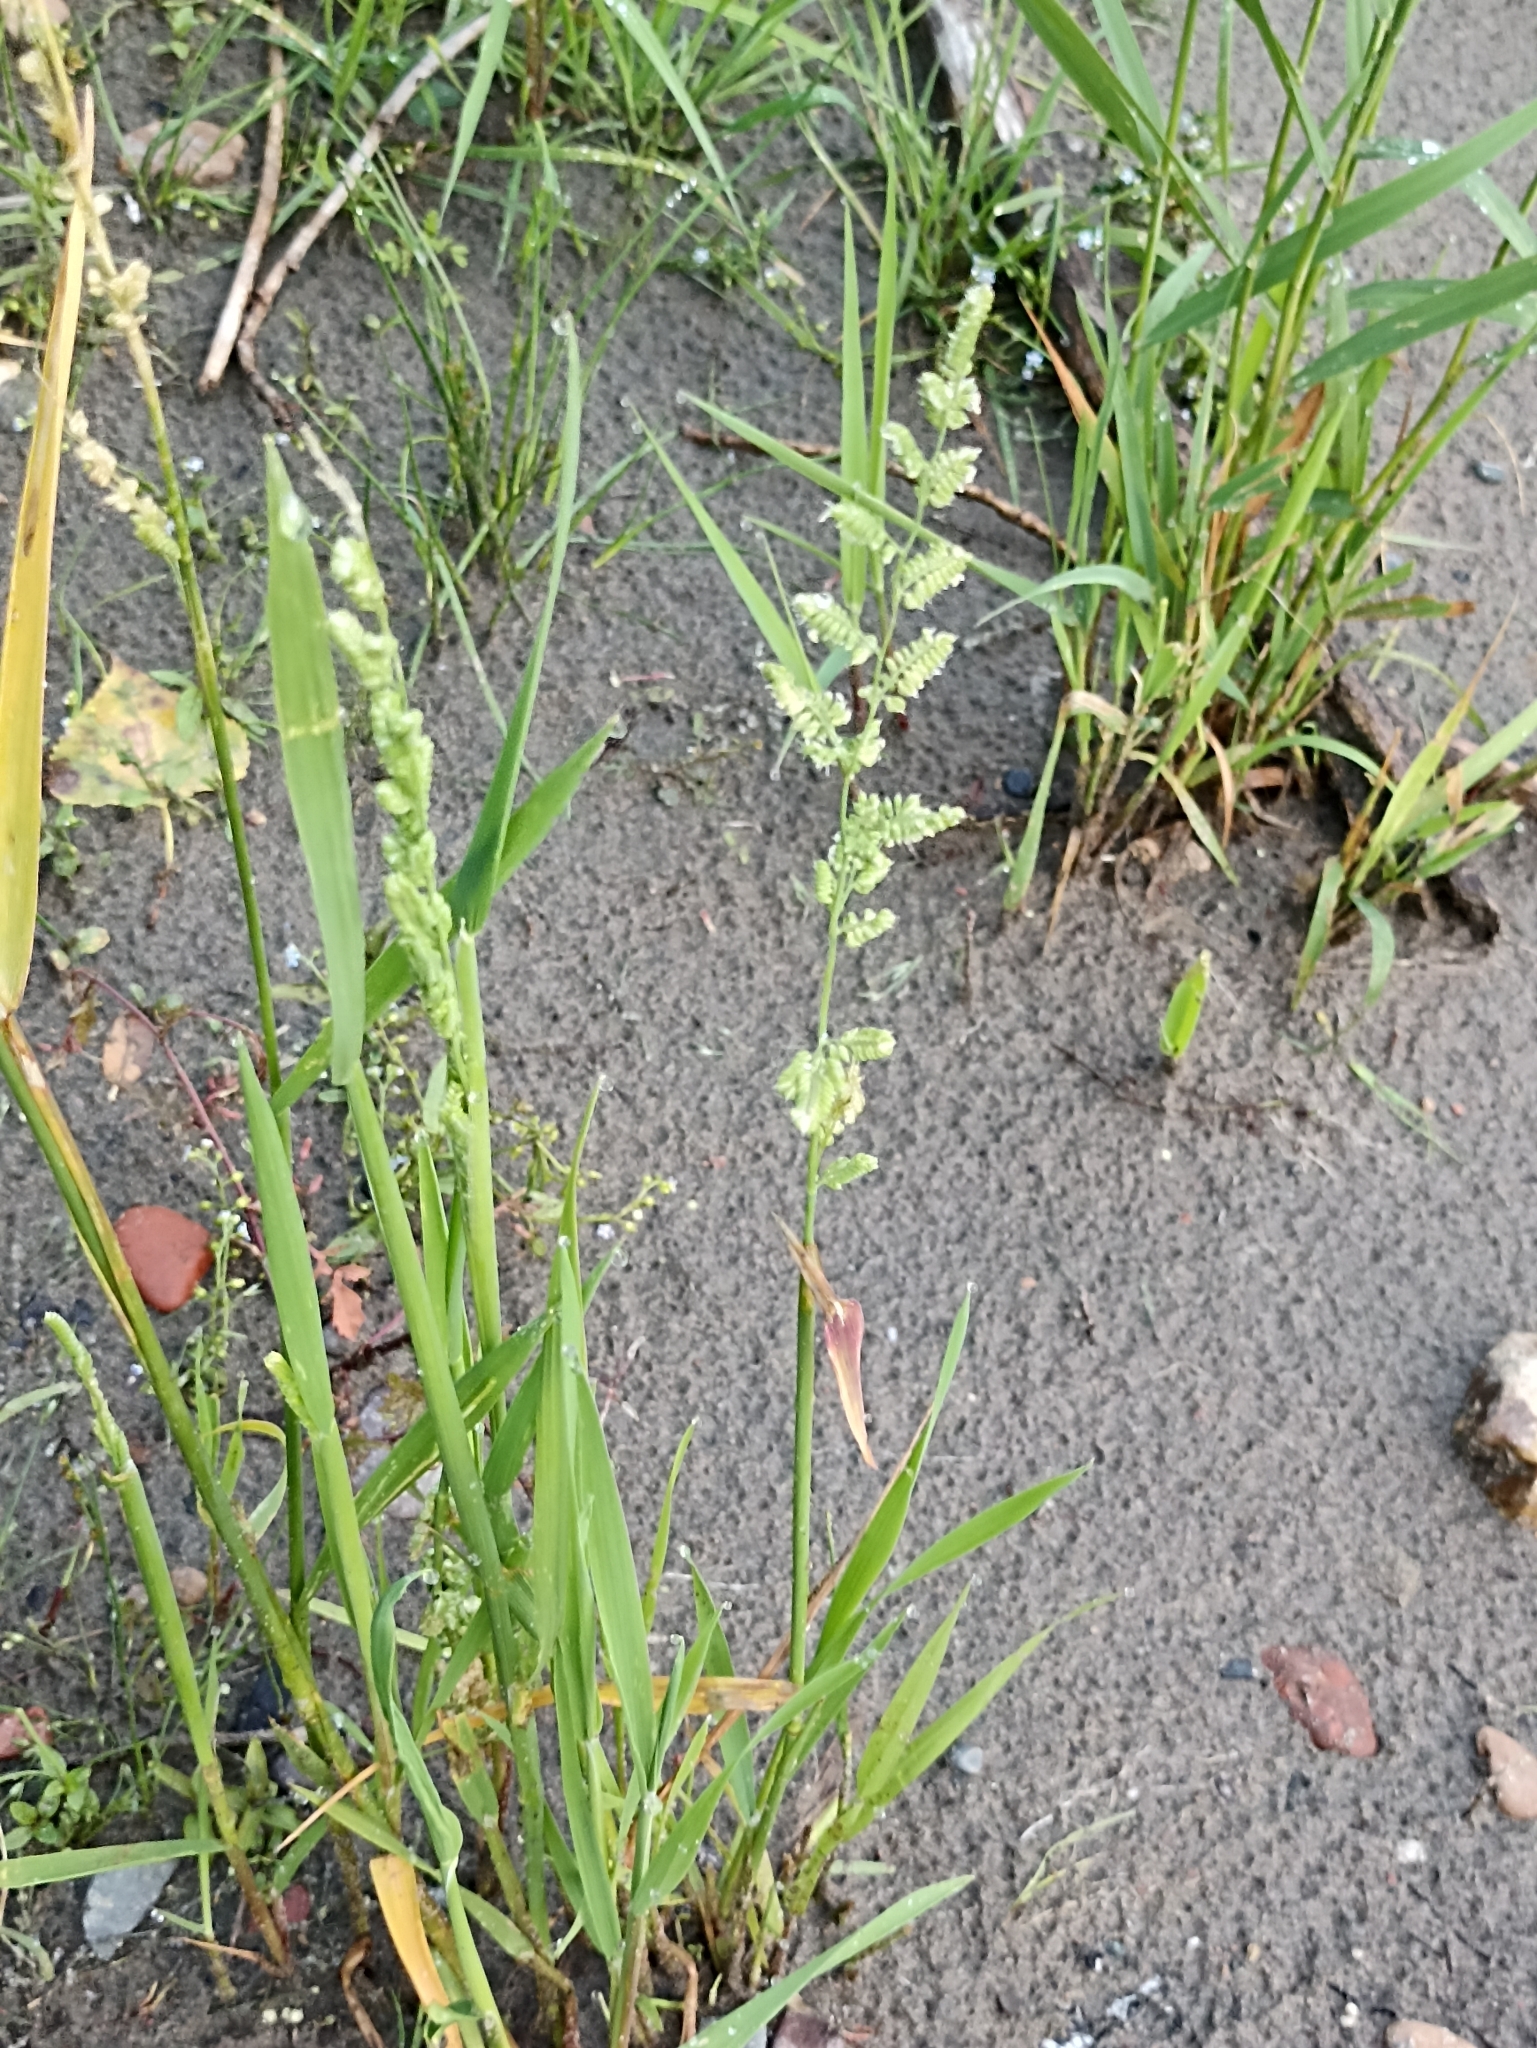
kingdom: Plantae
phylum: Tracheophyta
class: Liliopsida
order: Poales
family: Poaceae
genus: Beckmannia
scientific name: Beckmannia syzigachne
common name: American slough-grass
